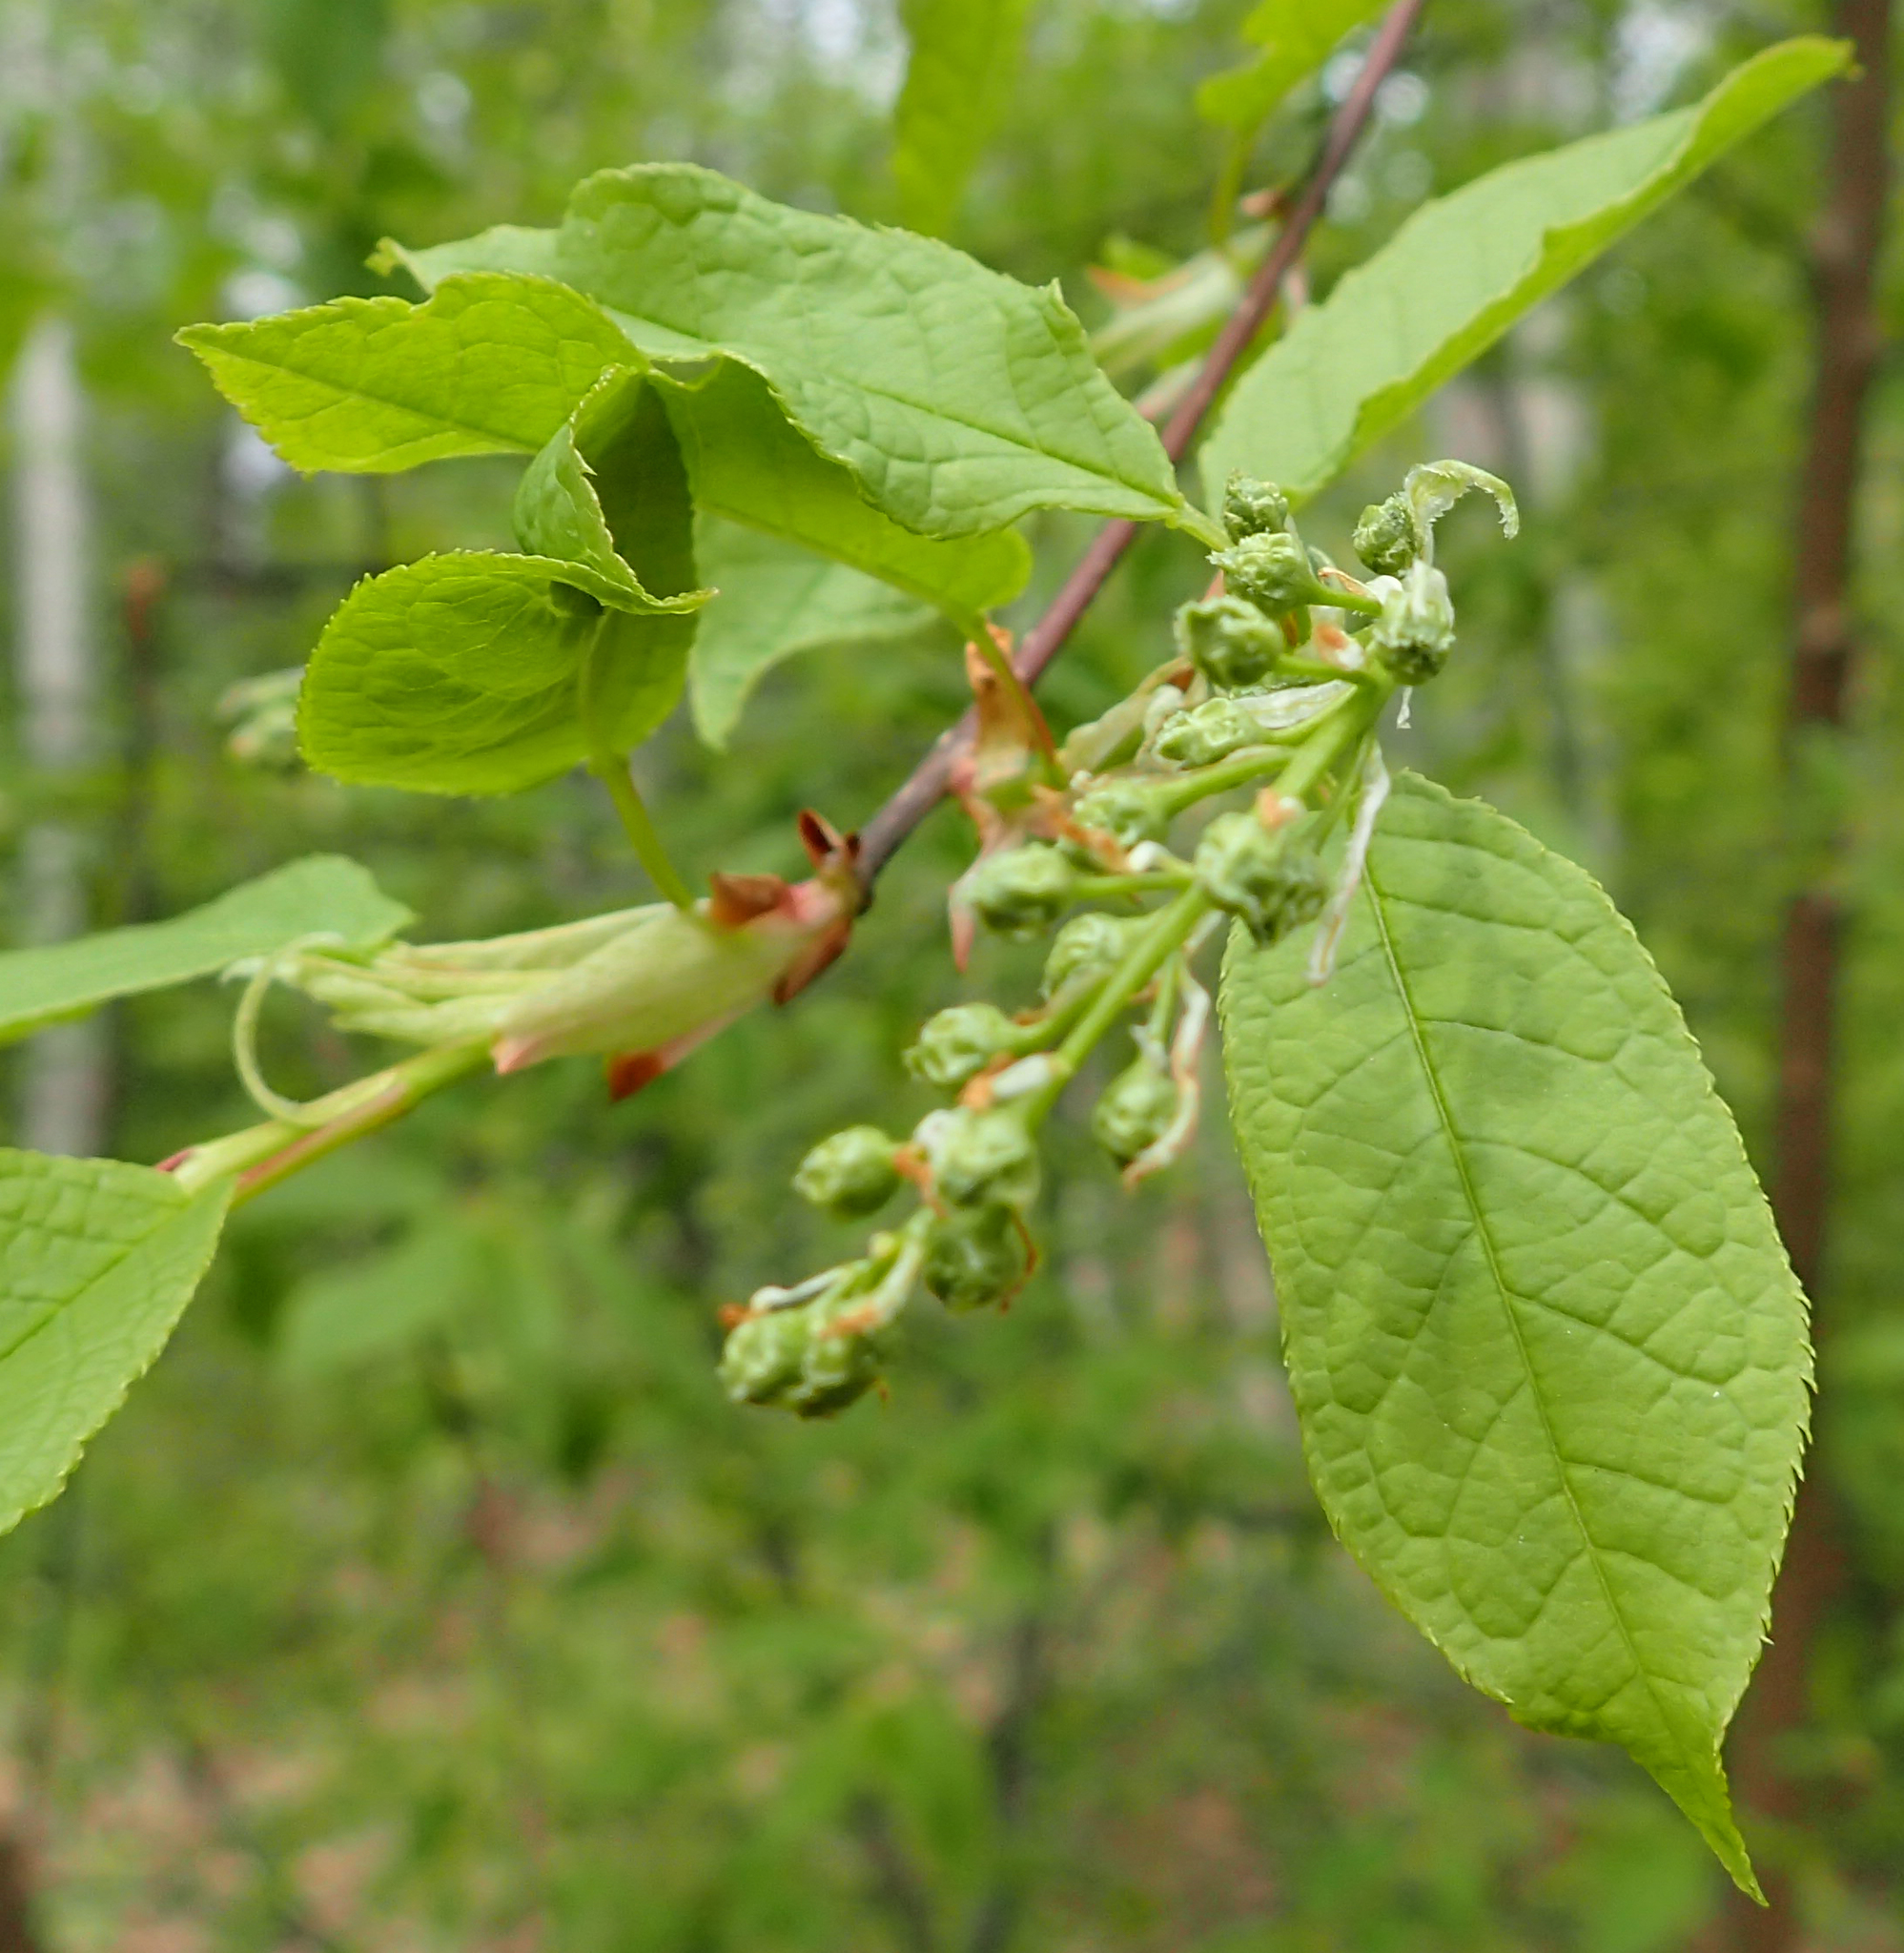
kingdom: Plantae
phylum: Tracheophyta
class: Magnoliopsida
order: Rosales
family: Rosaceae
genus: Prunus
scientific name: Prunus padus
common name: Bird cherry
